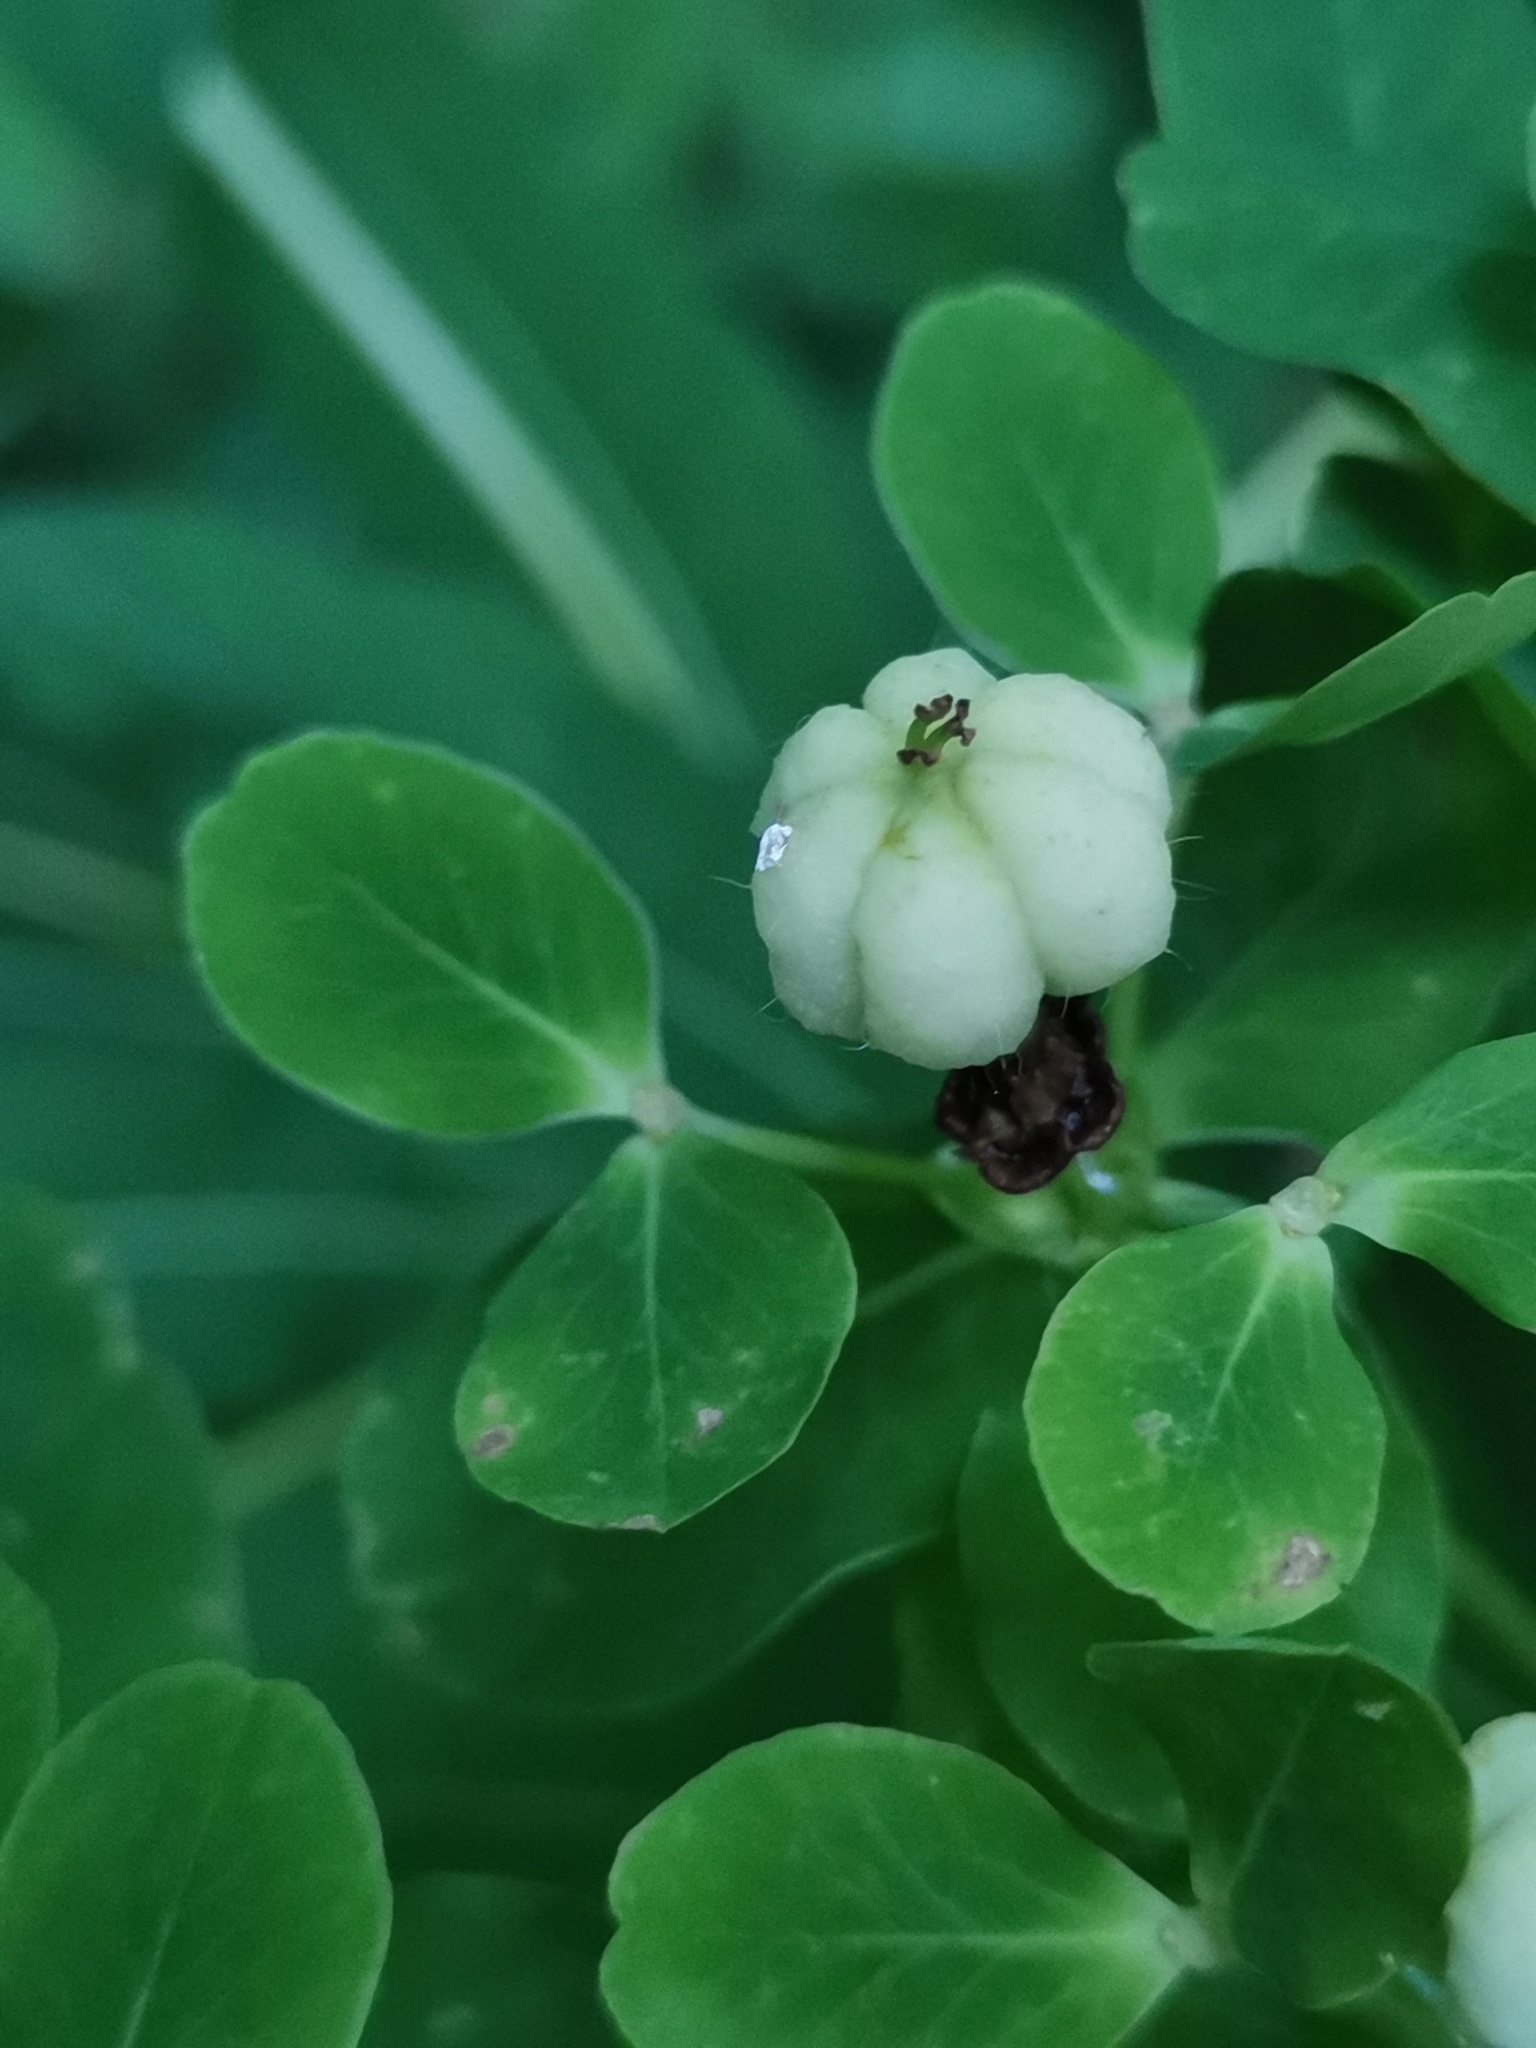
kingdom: Plantae
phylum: Tracheophyta
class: Magnoliopsida
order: Malpighiales
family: Euphorbiaceae
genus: Euphorbia
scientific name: Euphorbia illirica
